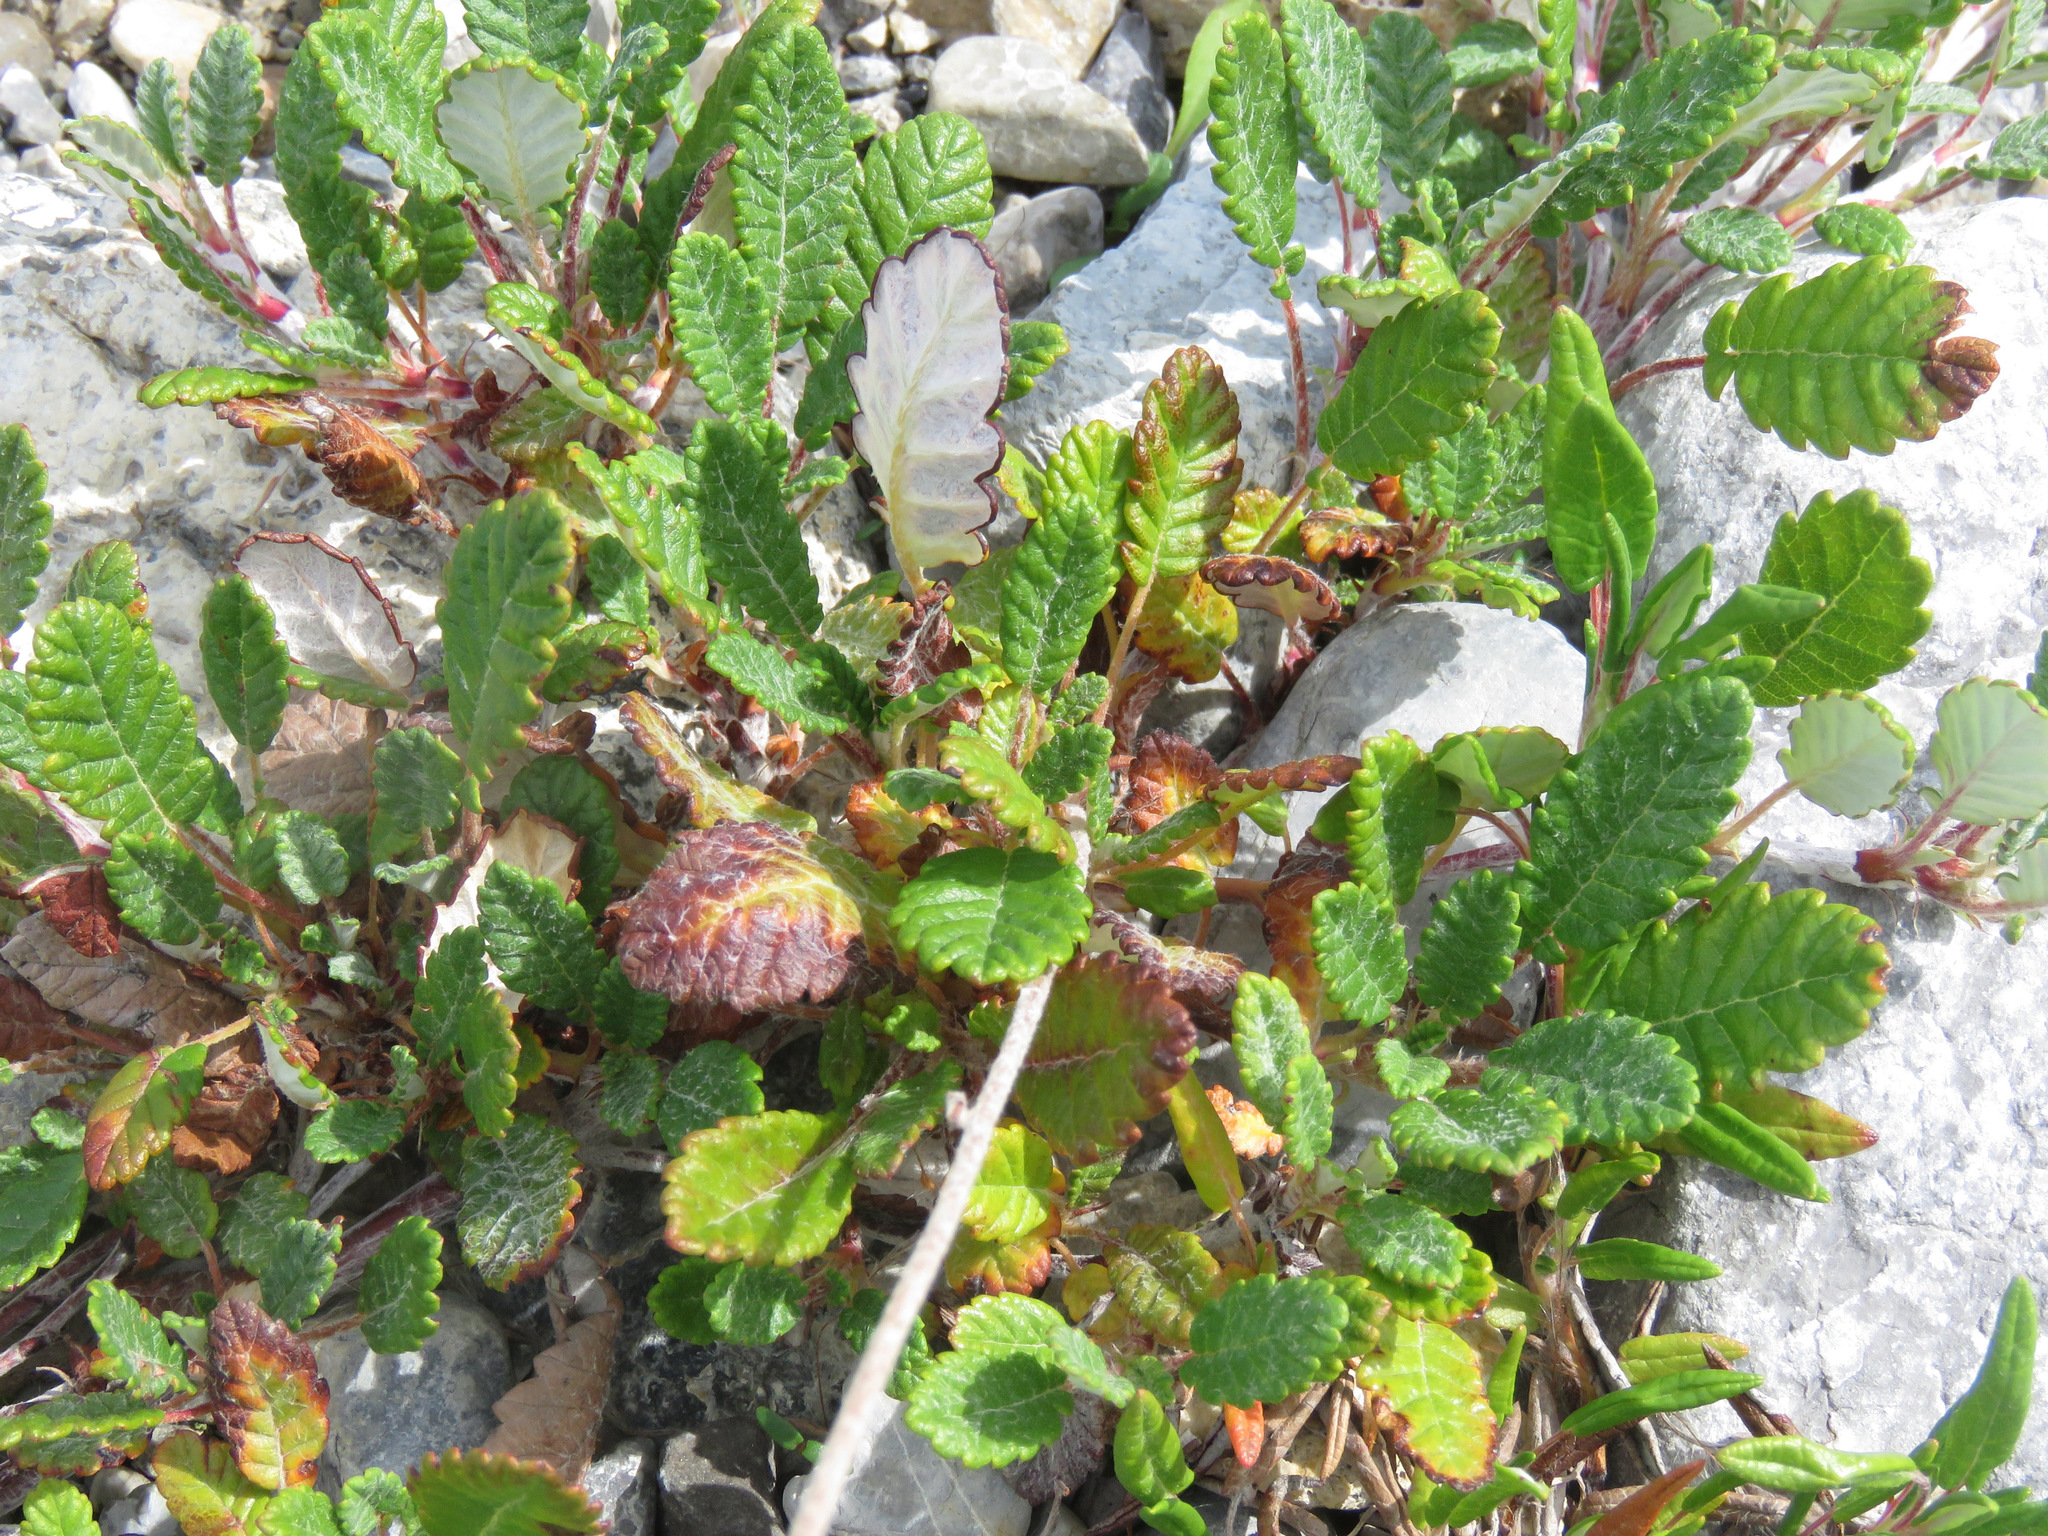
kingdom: Plantae
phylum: Tracheophyta
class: Magnoliopsida
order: Rosales
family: Rosaceae
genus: Dryas
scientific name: Dryas drummondii
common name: Drummond's dryad
